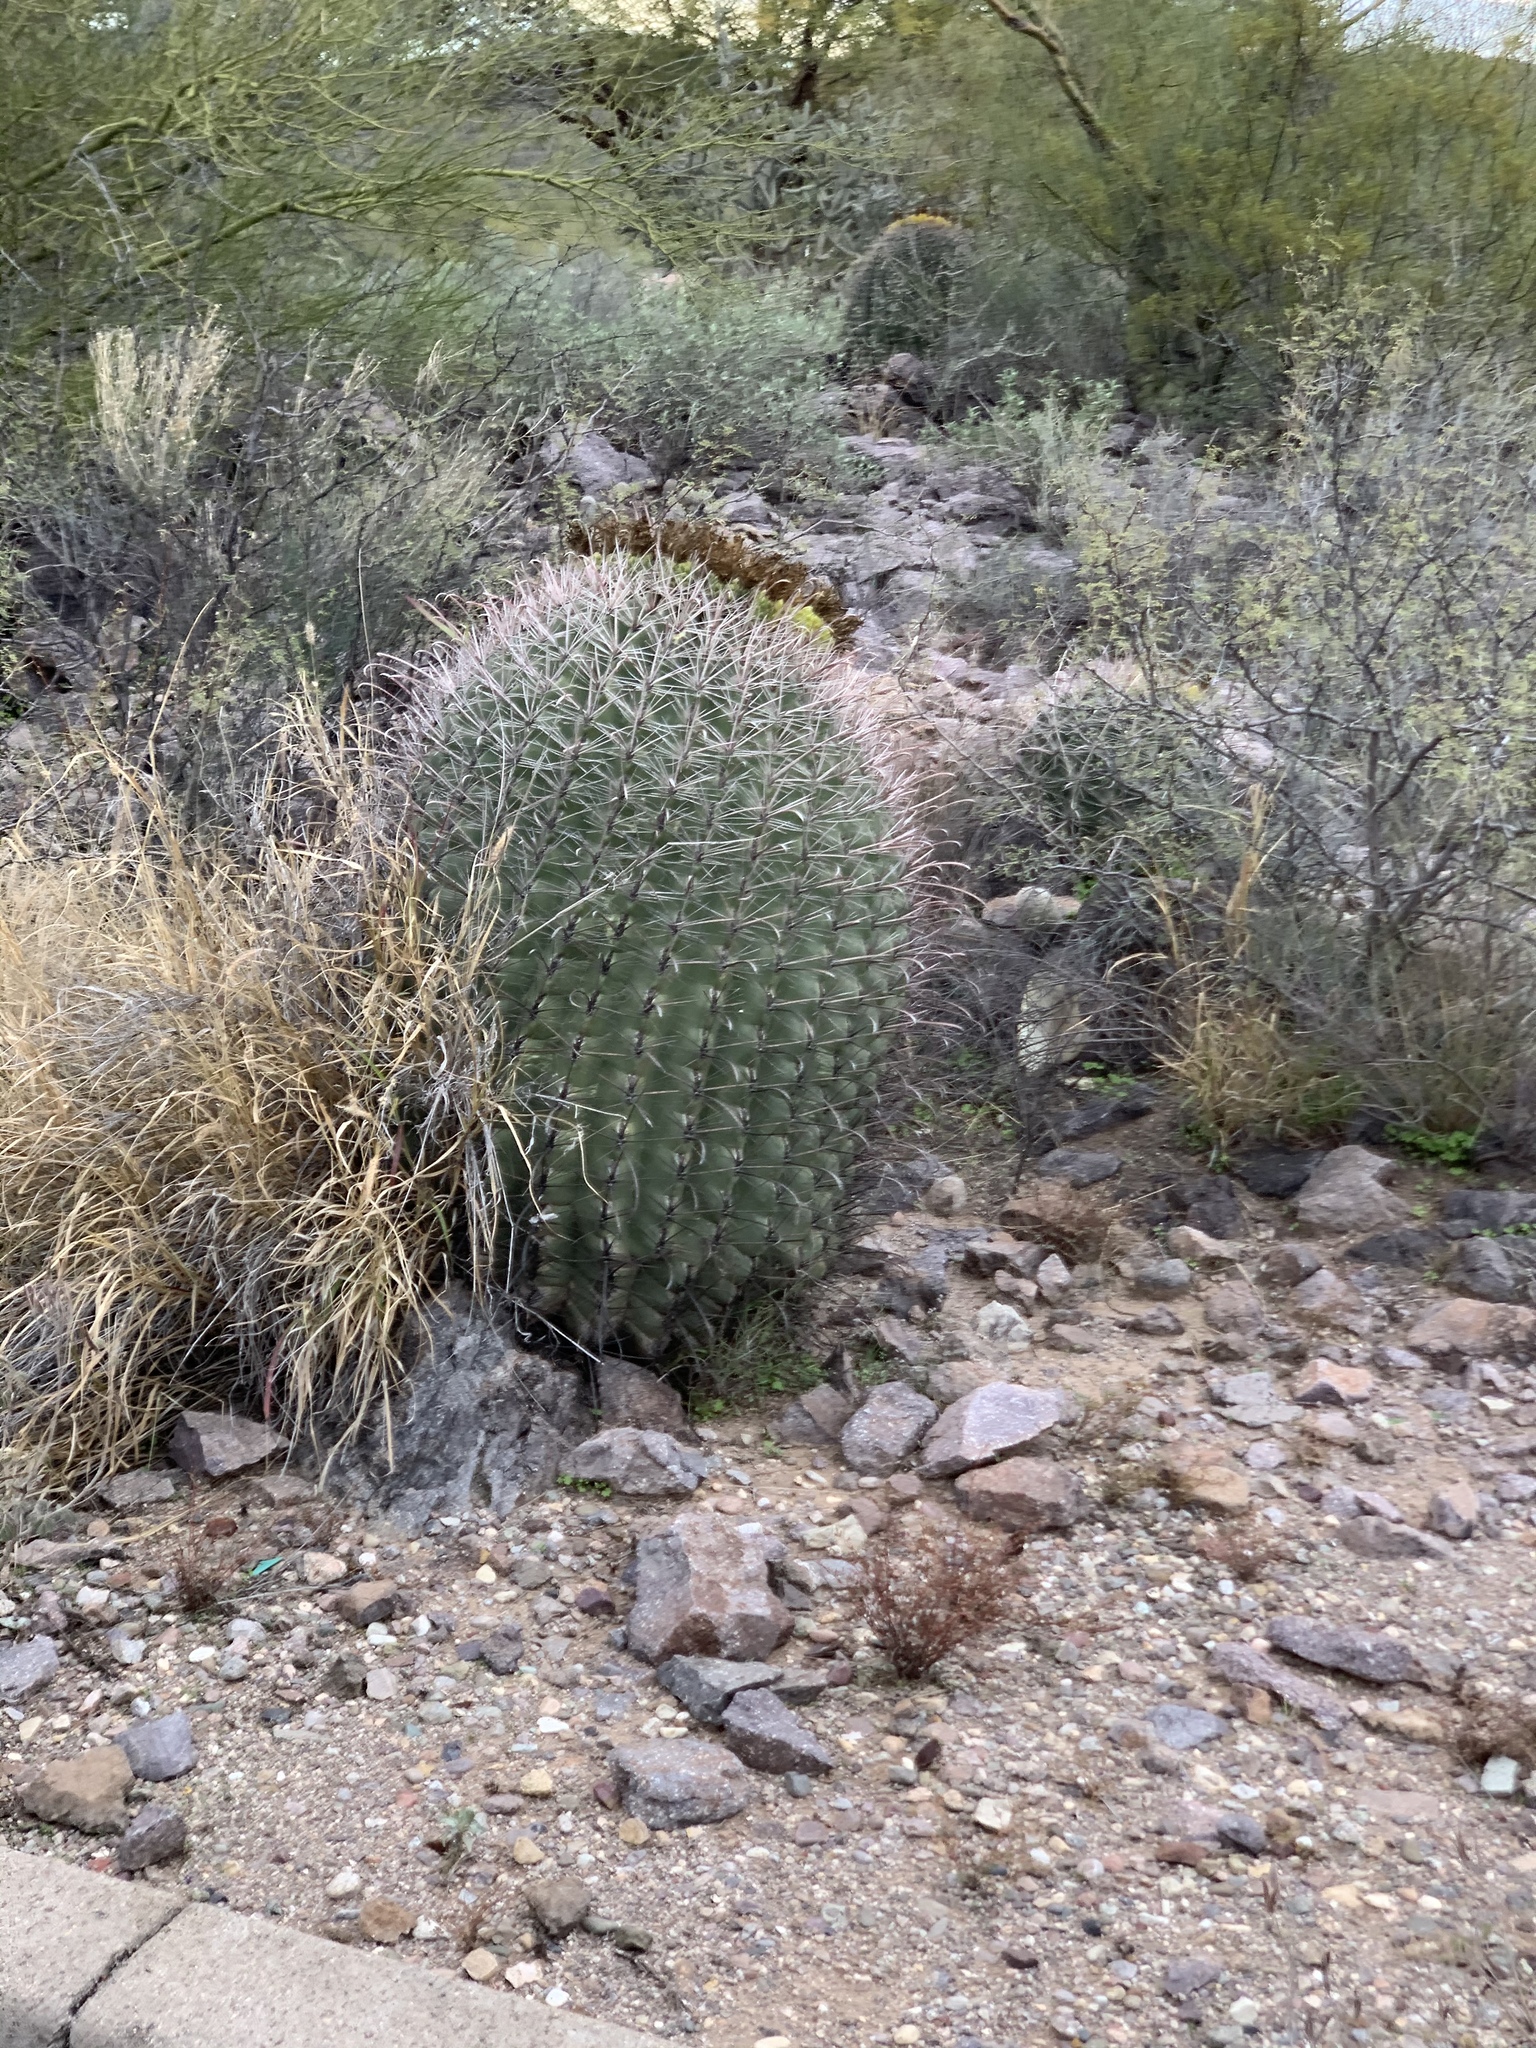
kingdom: Plantae
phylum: Tracheophyta
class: Magnoliopsida
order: Caryophyllales
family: Cactaceae
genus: Ferocactus
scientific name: Ferocactus wislizeni
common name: Candy barrel cactus
